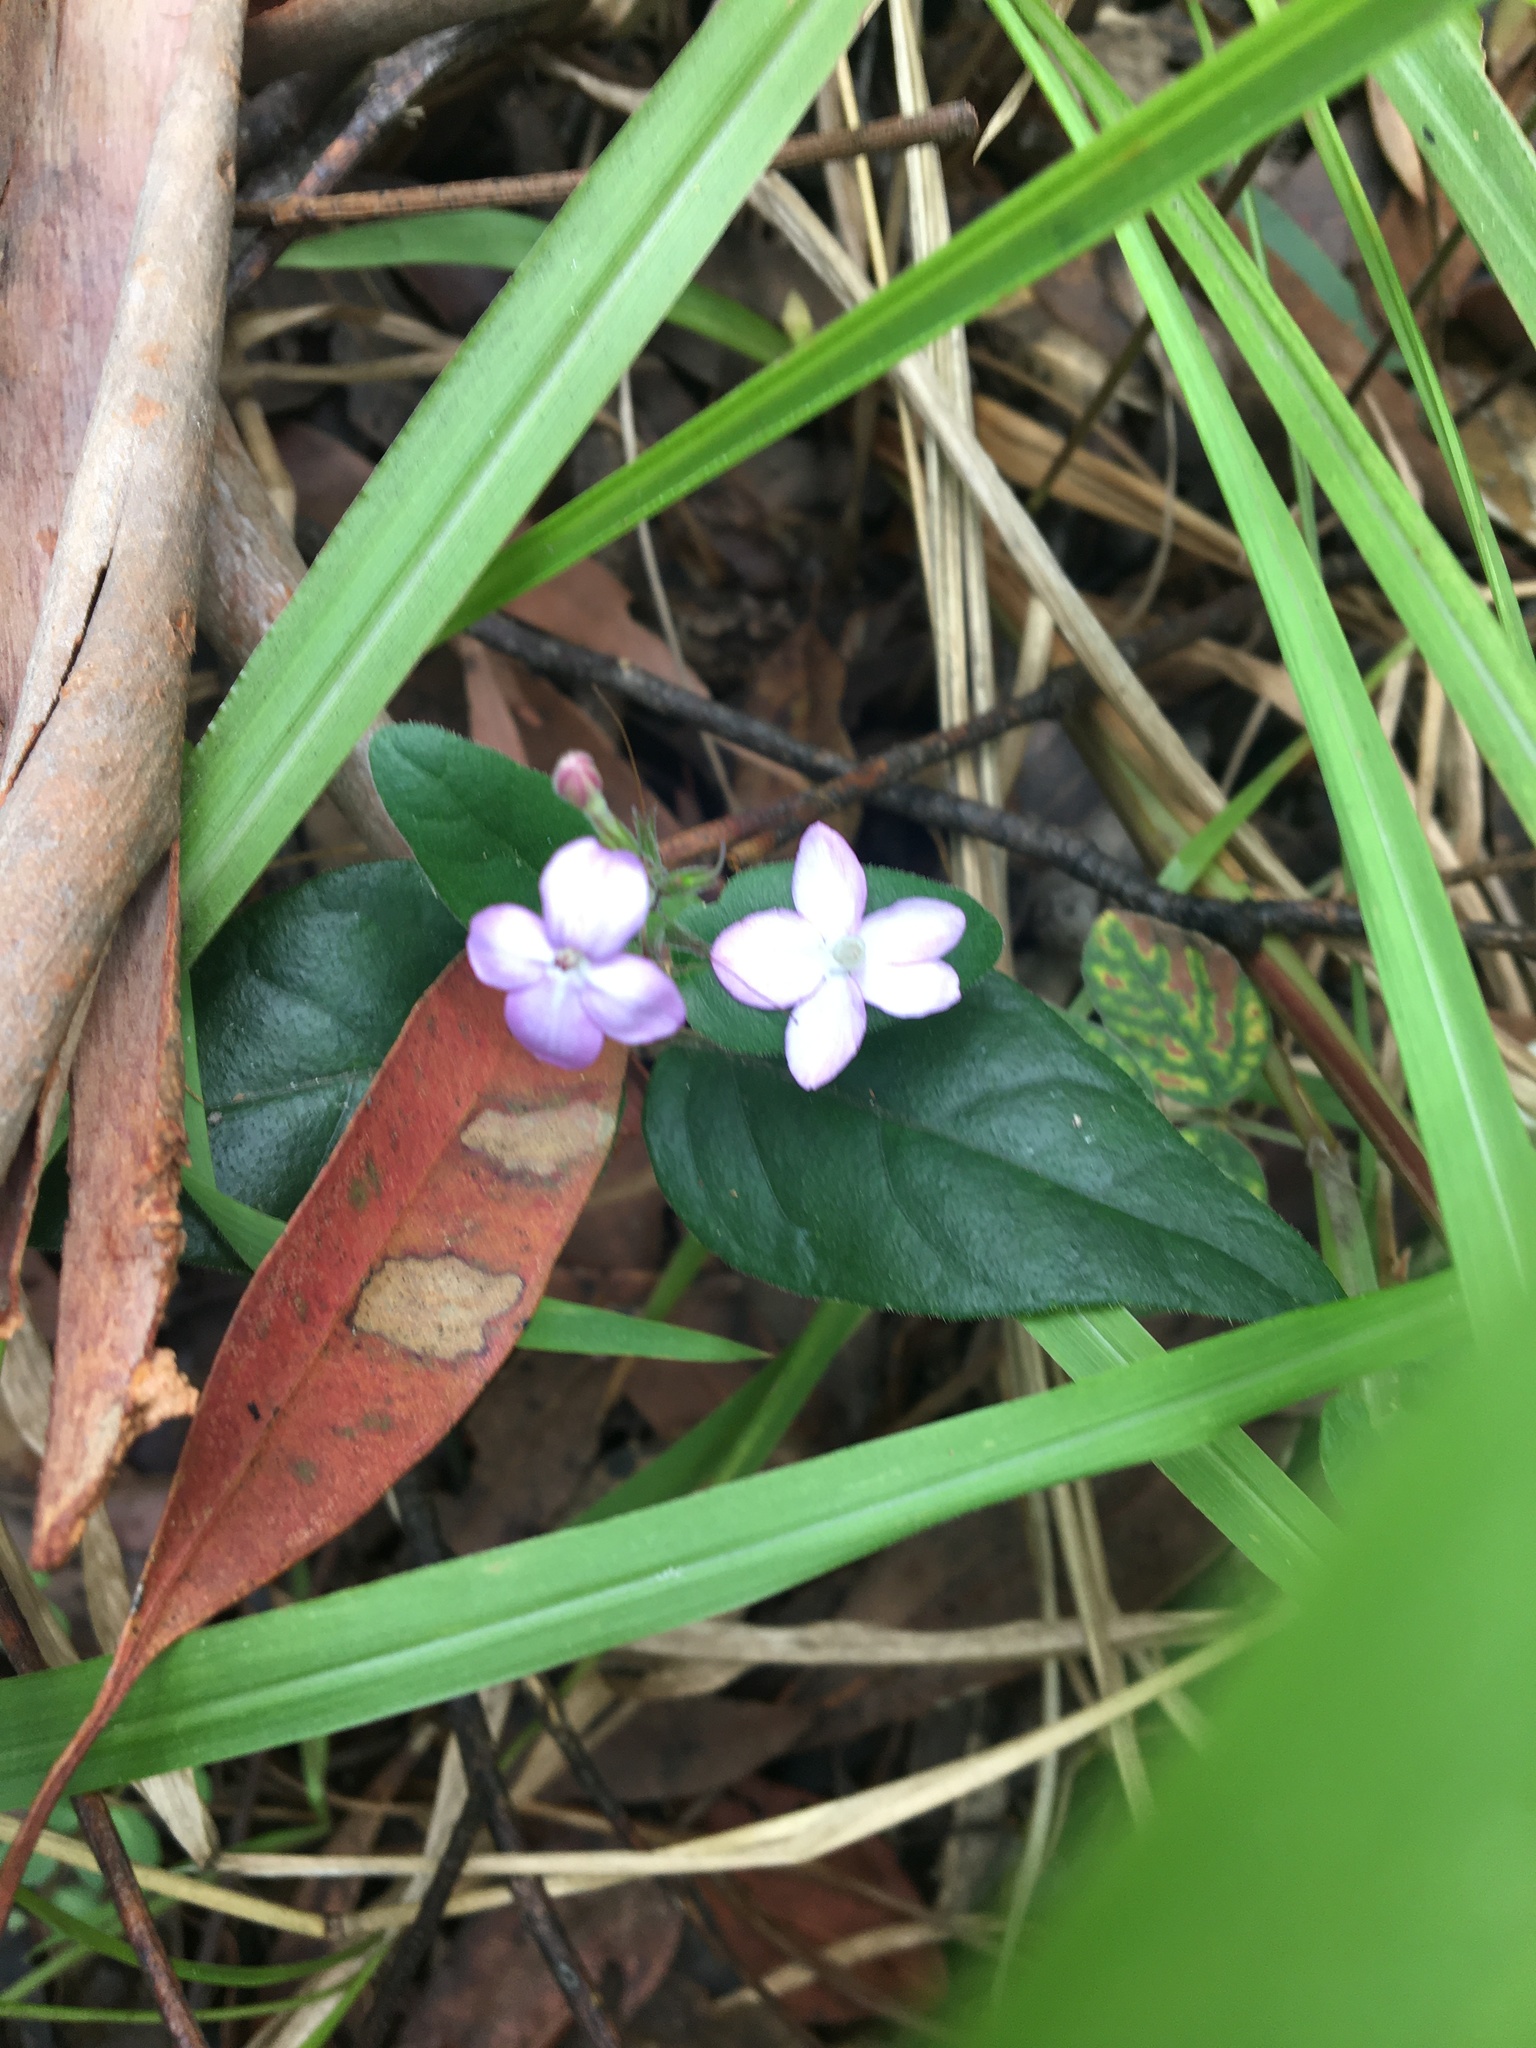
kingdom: Plantae
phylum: Tracheophyta
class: Magnoliopsida
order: Lamiales
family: Acanthaceae
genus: Pseuderanthemum
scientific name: Pseuderanthemum variabile
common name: Night and afternoon
